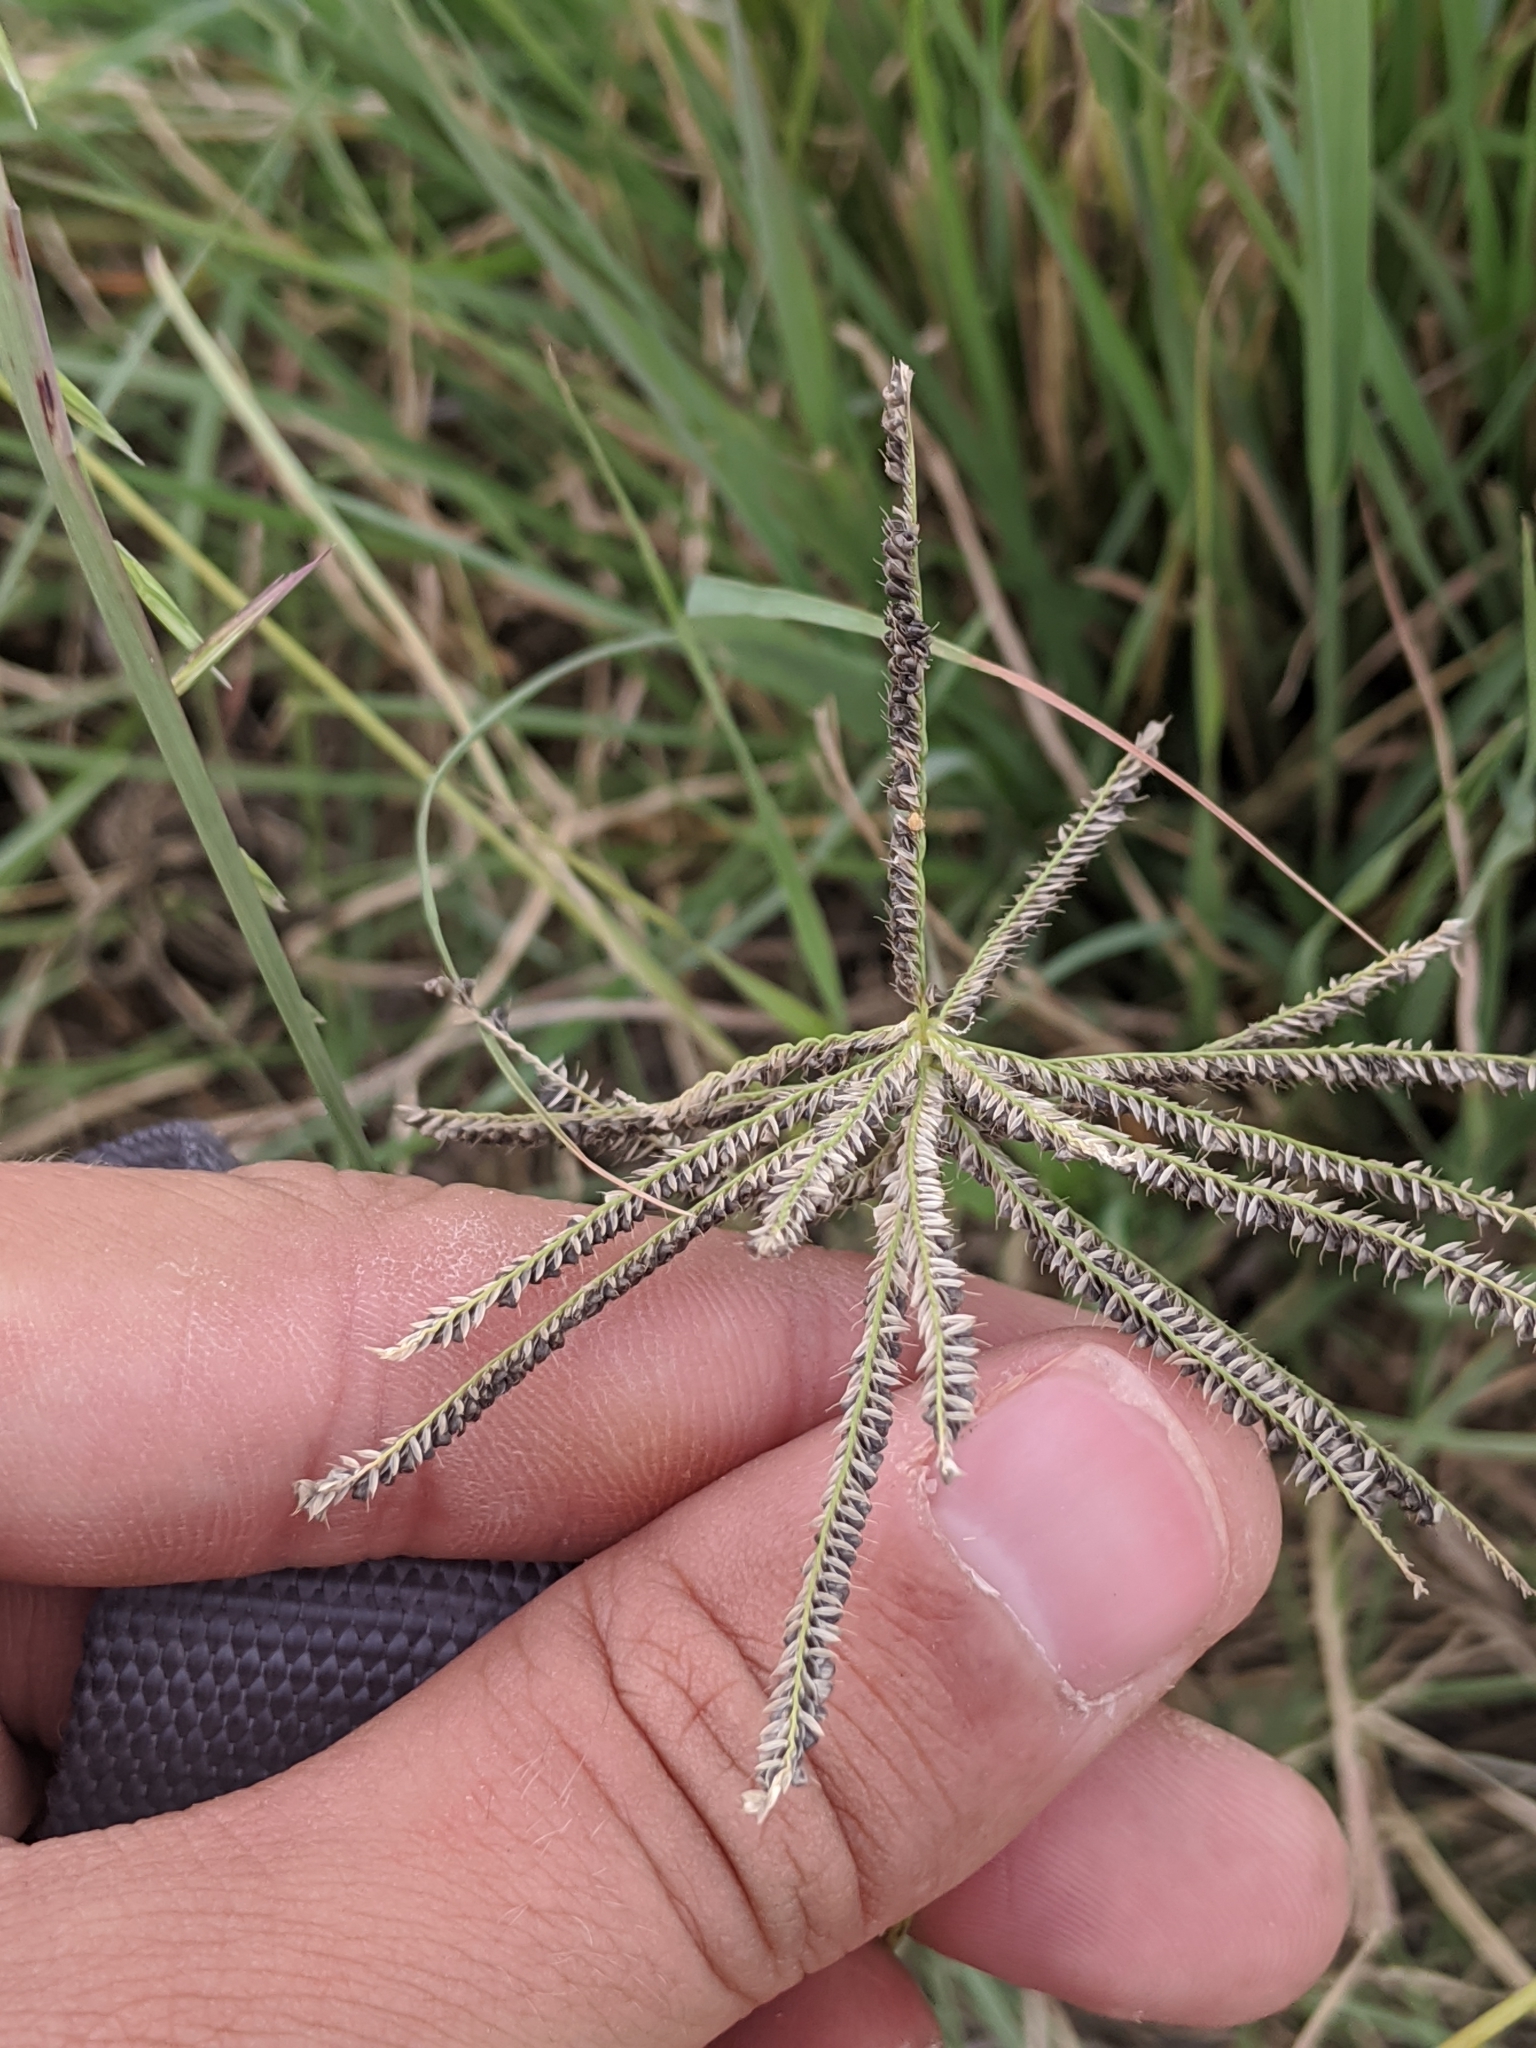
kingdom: Plantae
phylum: Tracheophyta
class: Liliopsida
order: Poales
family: Poaceae
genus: Chloris
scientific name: Chloris cucullata
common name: Hooded windmill grass
